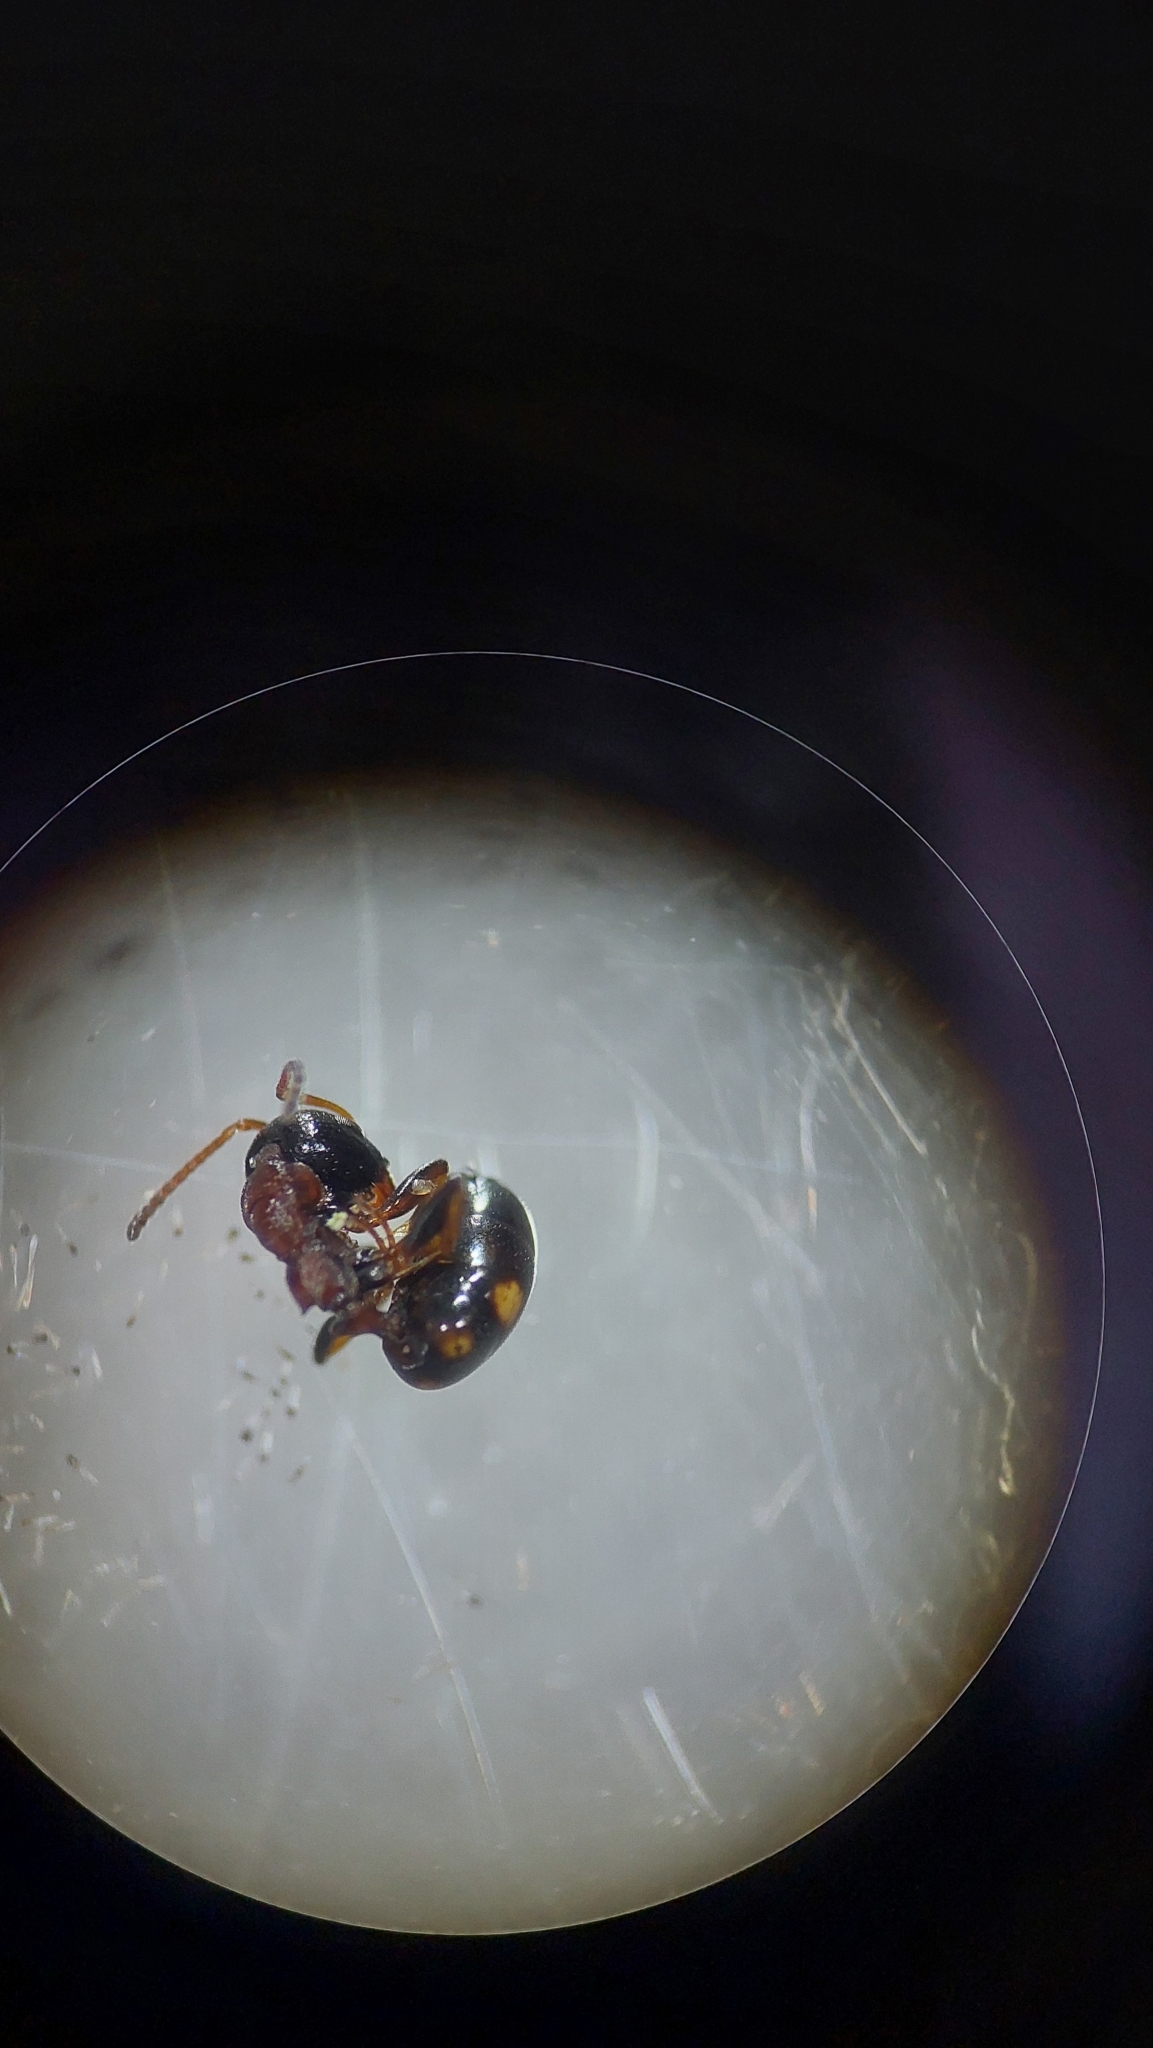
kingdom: Animalia
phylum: Arthropoda
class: Insecta
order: Hymenoptera
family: Formicidae
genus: Dolichoderus
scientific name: Dolichoderus quadripunctatus
